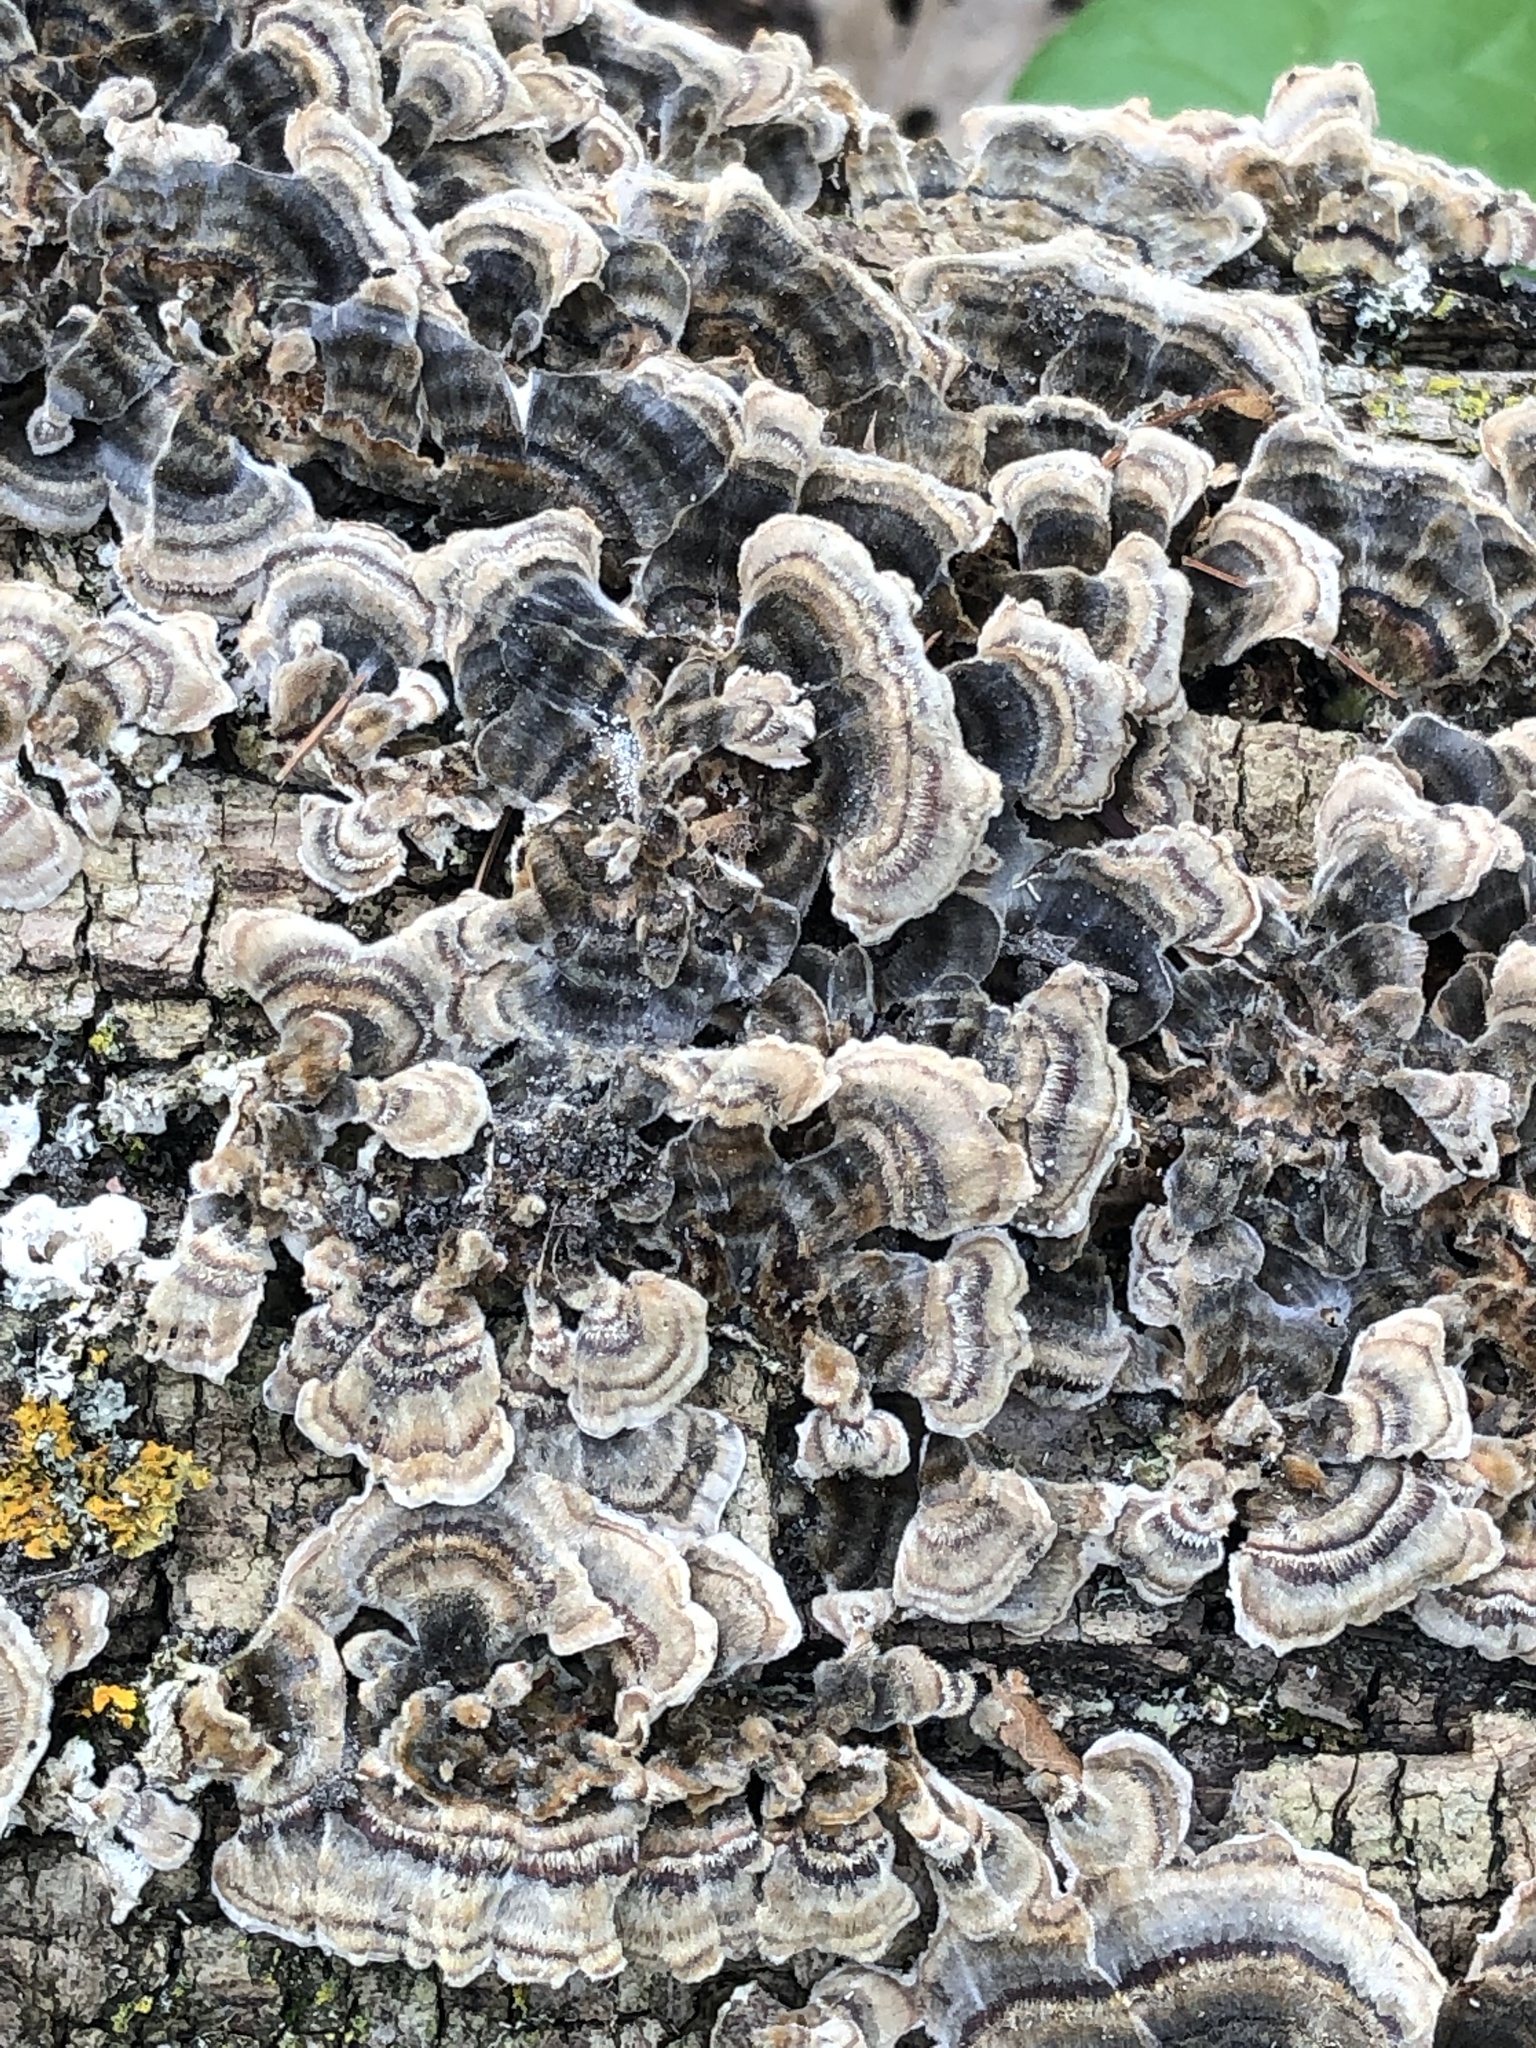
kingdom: Fungi
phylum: Basidiomycota
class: Agaricomycetes
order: Polyporales
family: Polyporaceae
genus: Trametes
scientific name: Trametes versicolor
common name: Turkeytail
